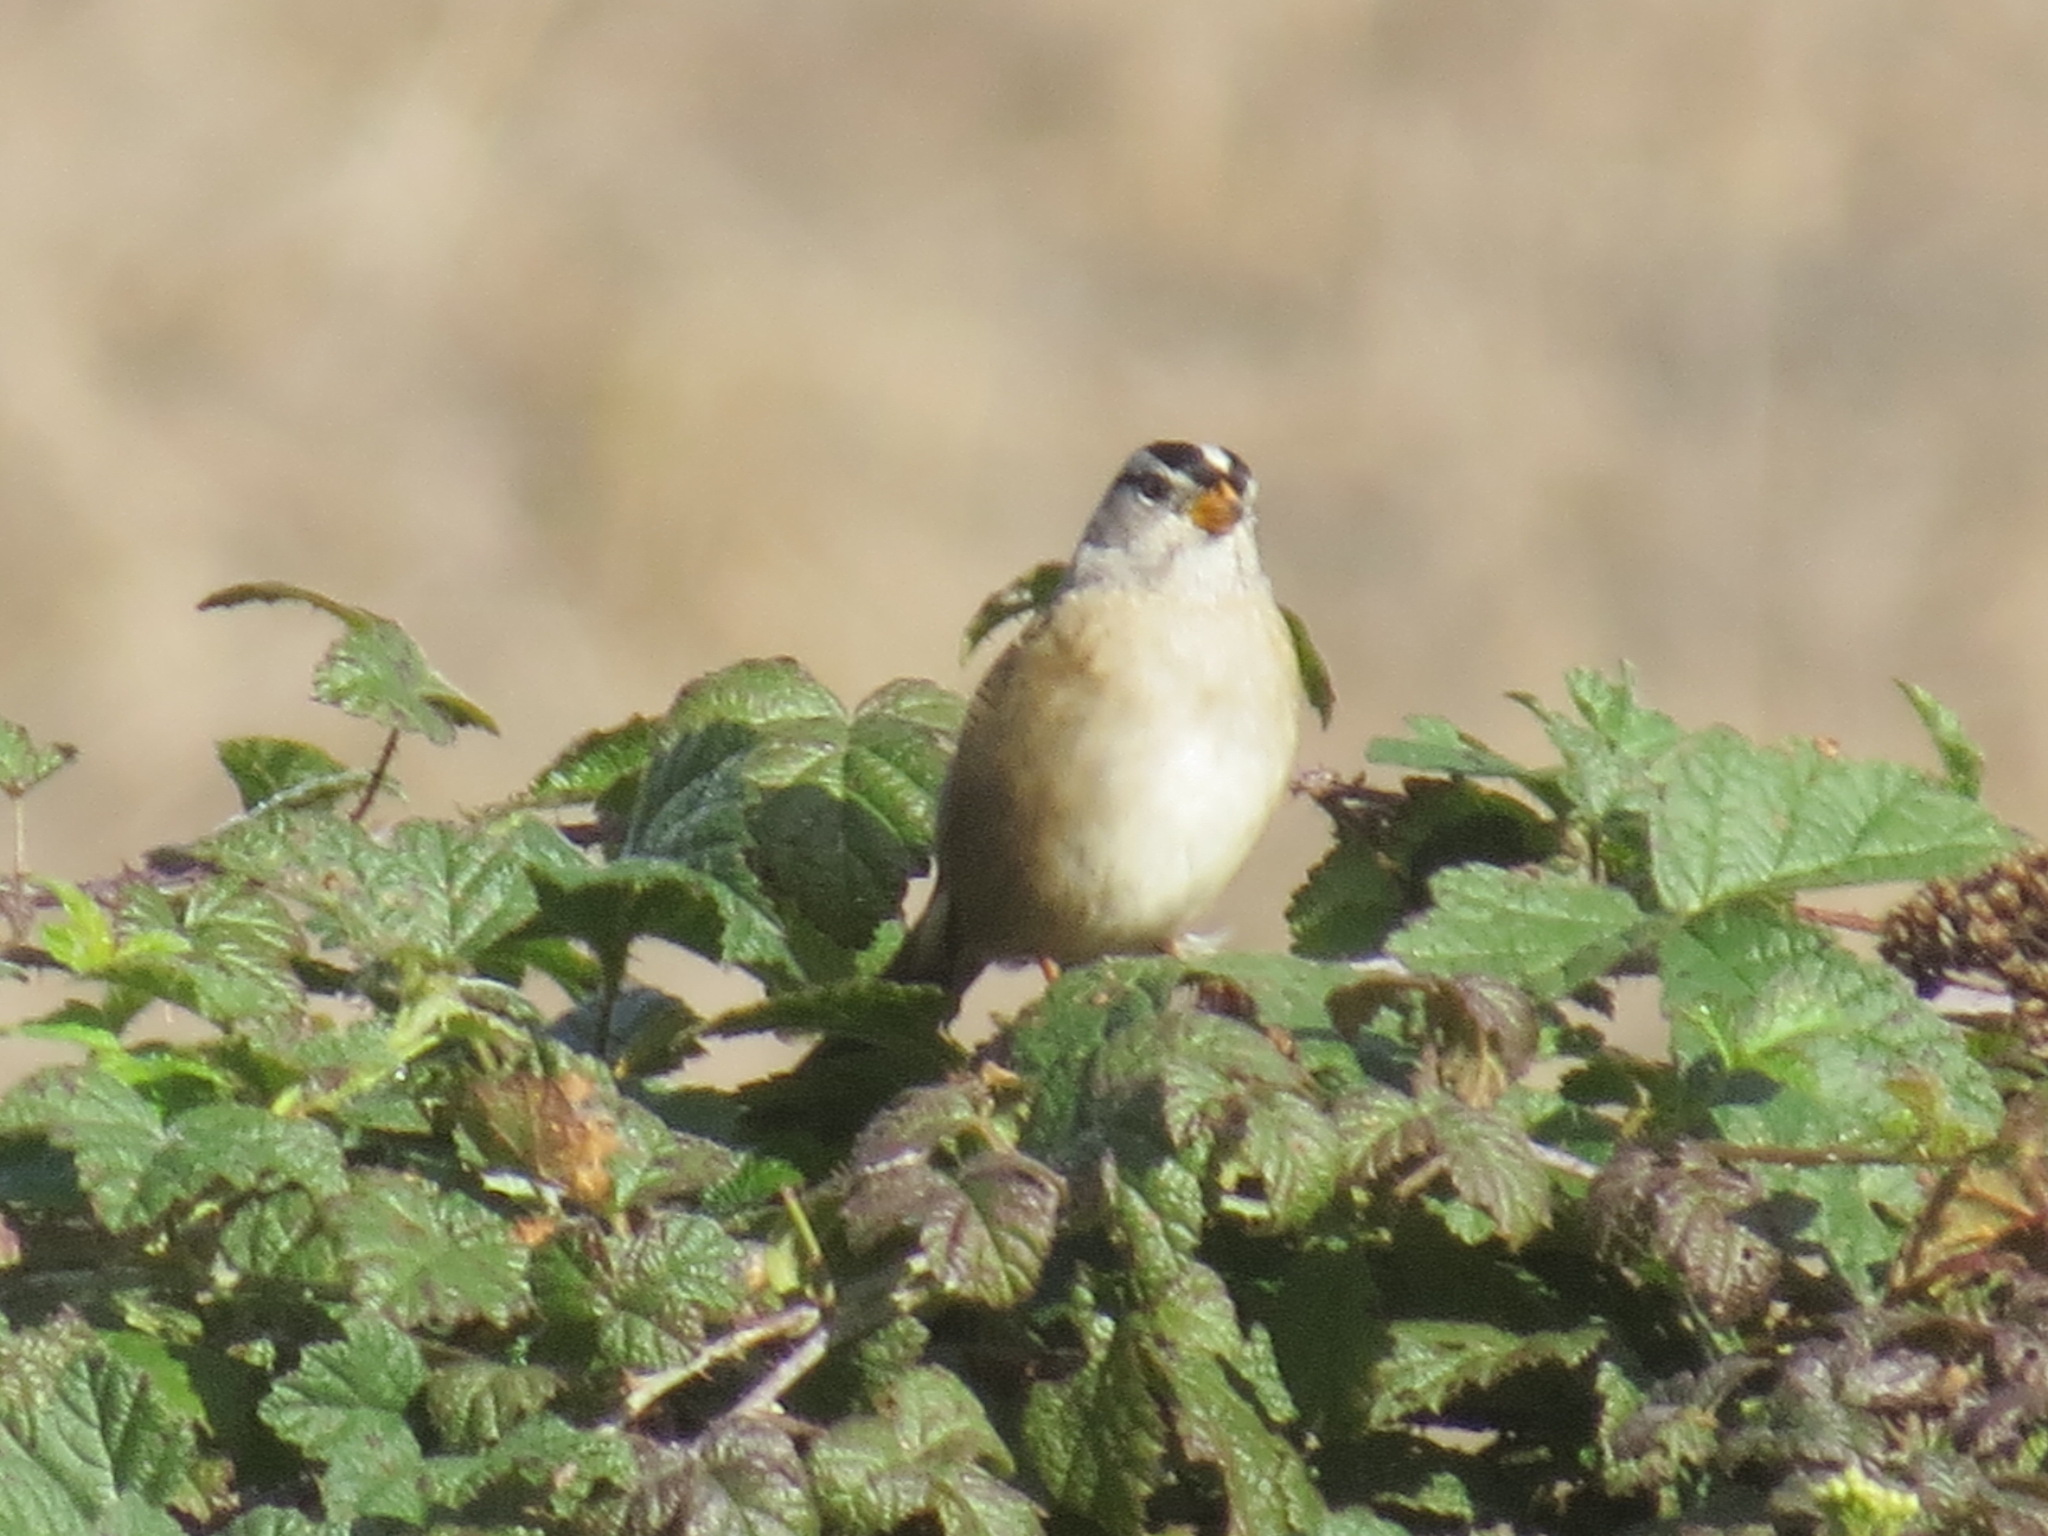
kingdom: Animalia
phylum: Chordata
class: Aves
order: Passeriformes
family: Passerellidae
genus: Zonotrichia
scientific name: Zonotrichia leucophrys
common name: White-crowned sparrow
